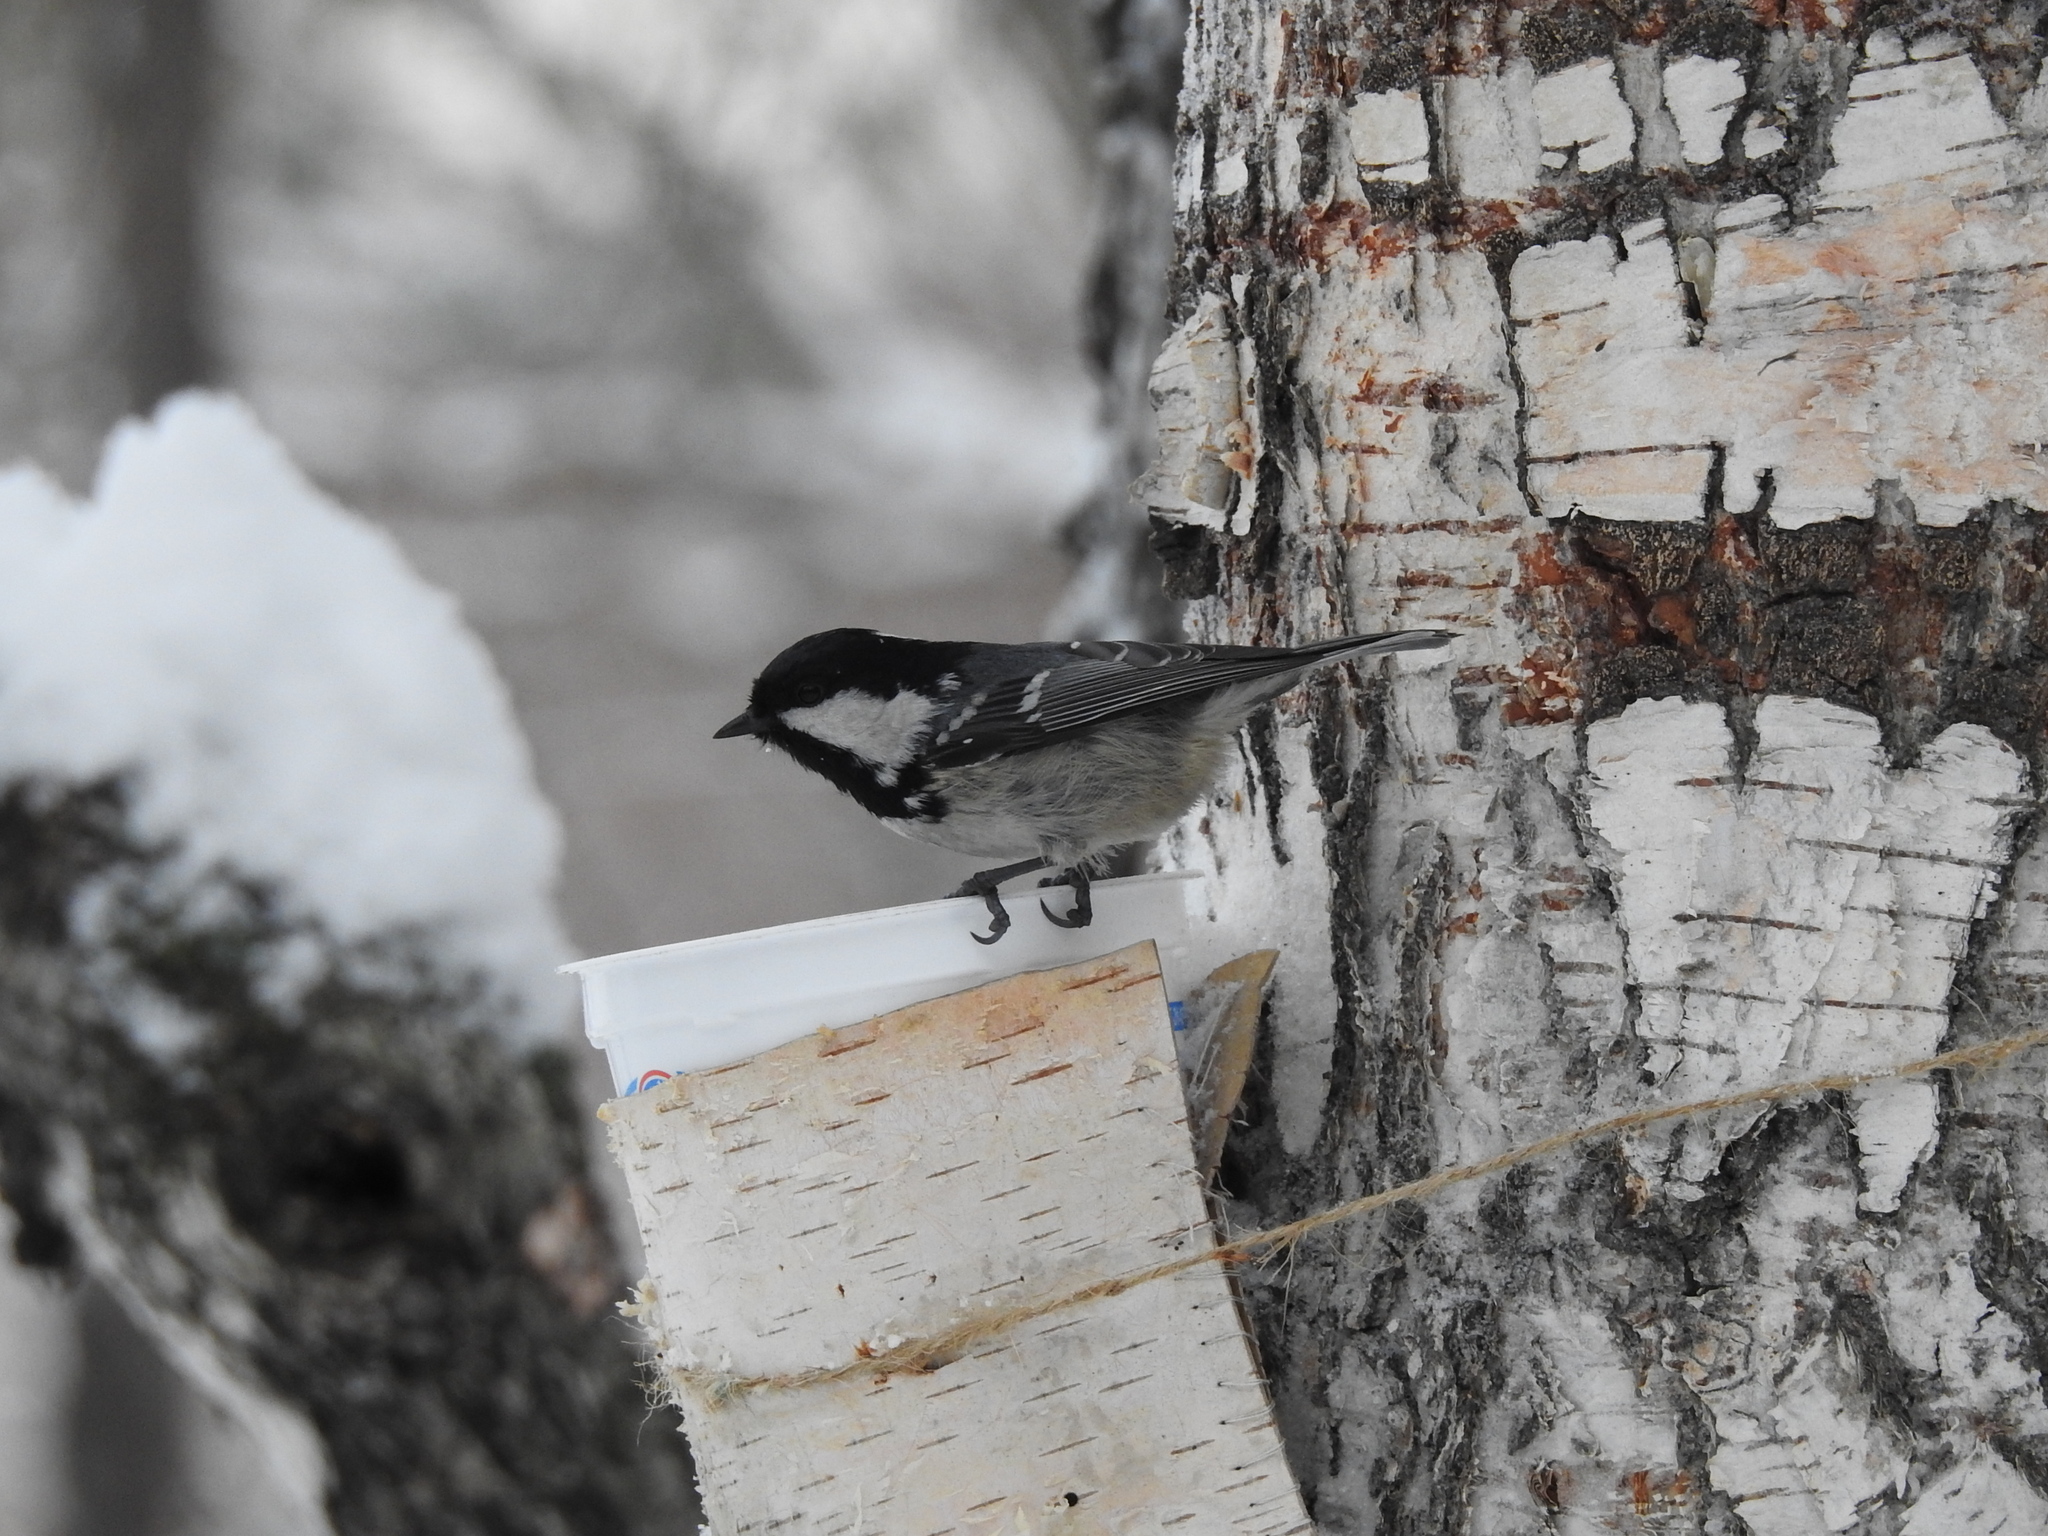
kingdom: Animalia
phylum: Chordata
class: Aves
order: Passeriformes
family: Paridae
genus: Periparus
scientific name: Periparus ater
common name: Coal tit
